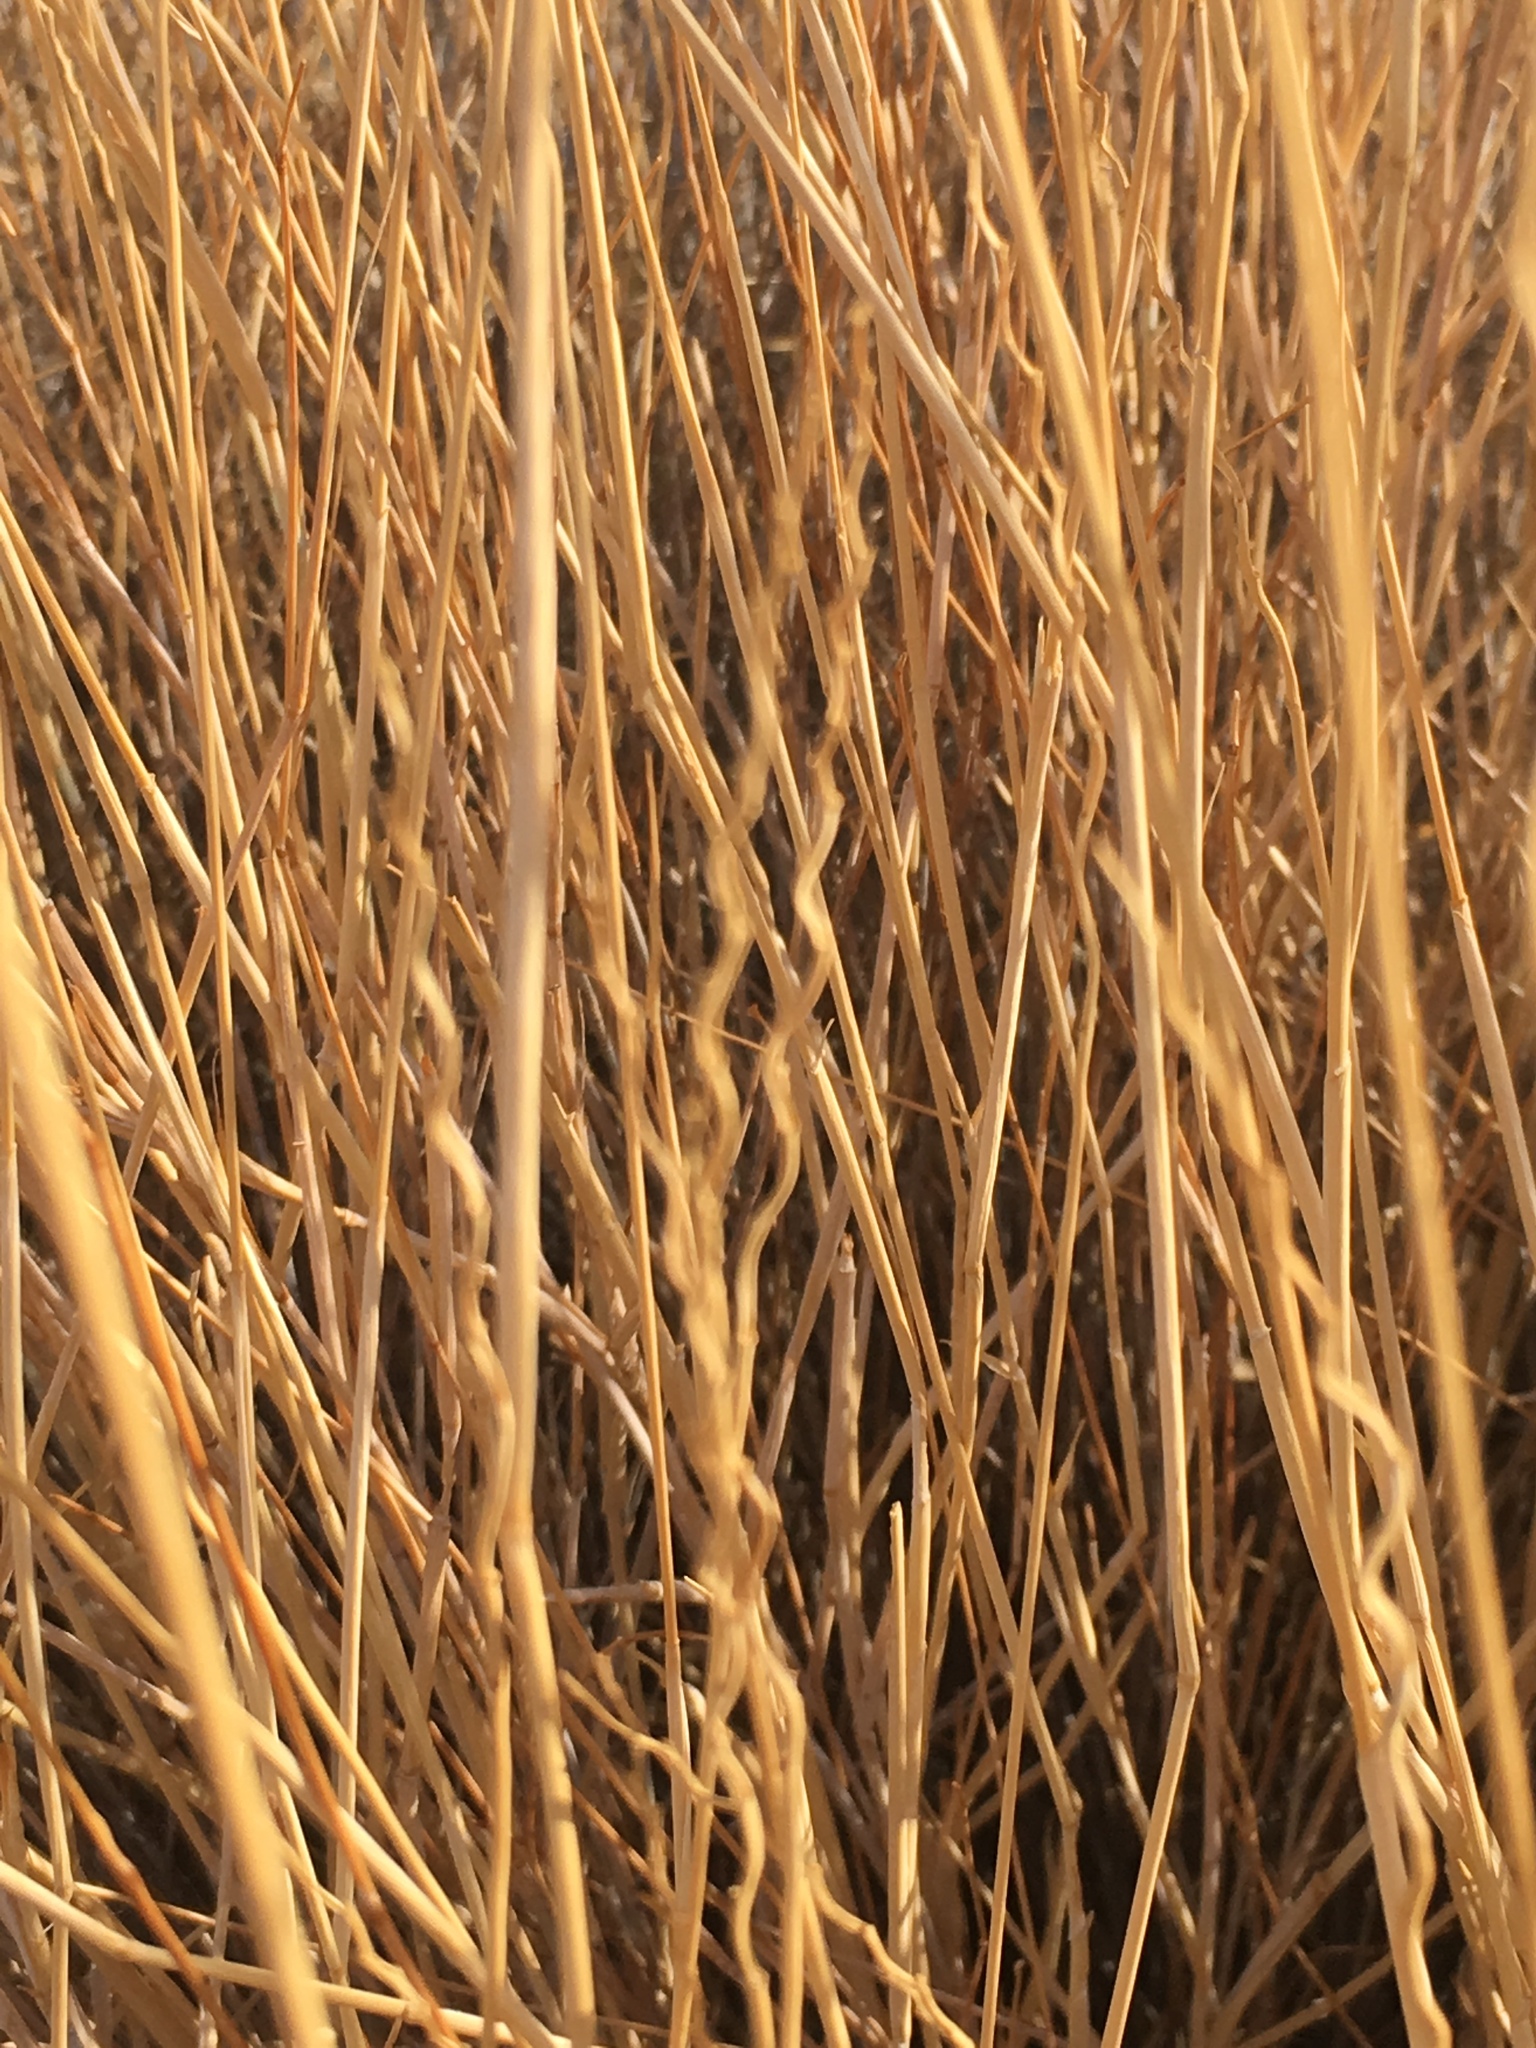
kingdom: Plantae
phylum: Tracheophyta
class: Liliopsida
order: Poales
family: Poaceae
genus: Hilaria
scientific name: Hilaria rigida
